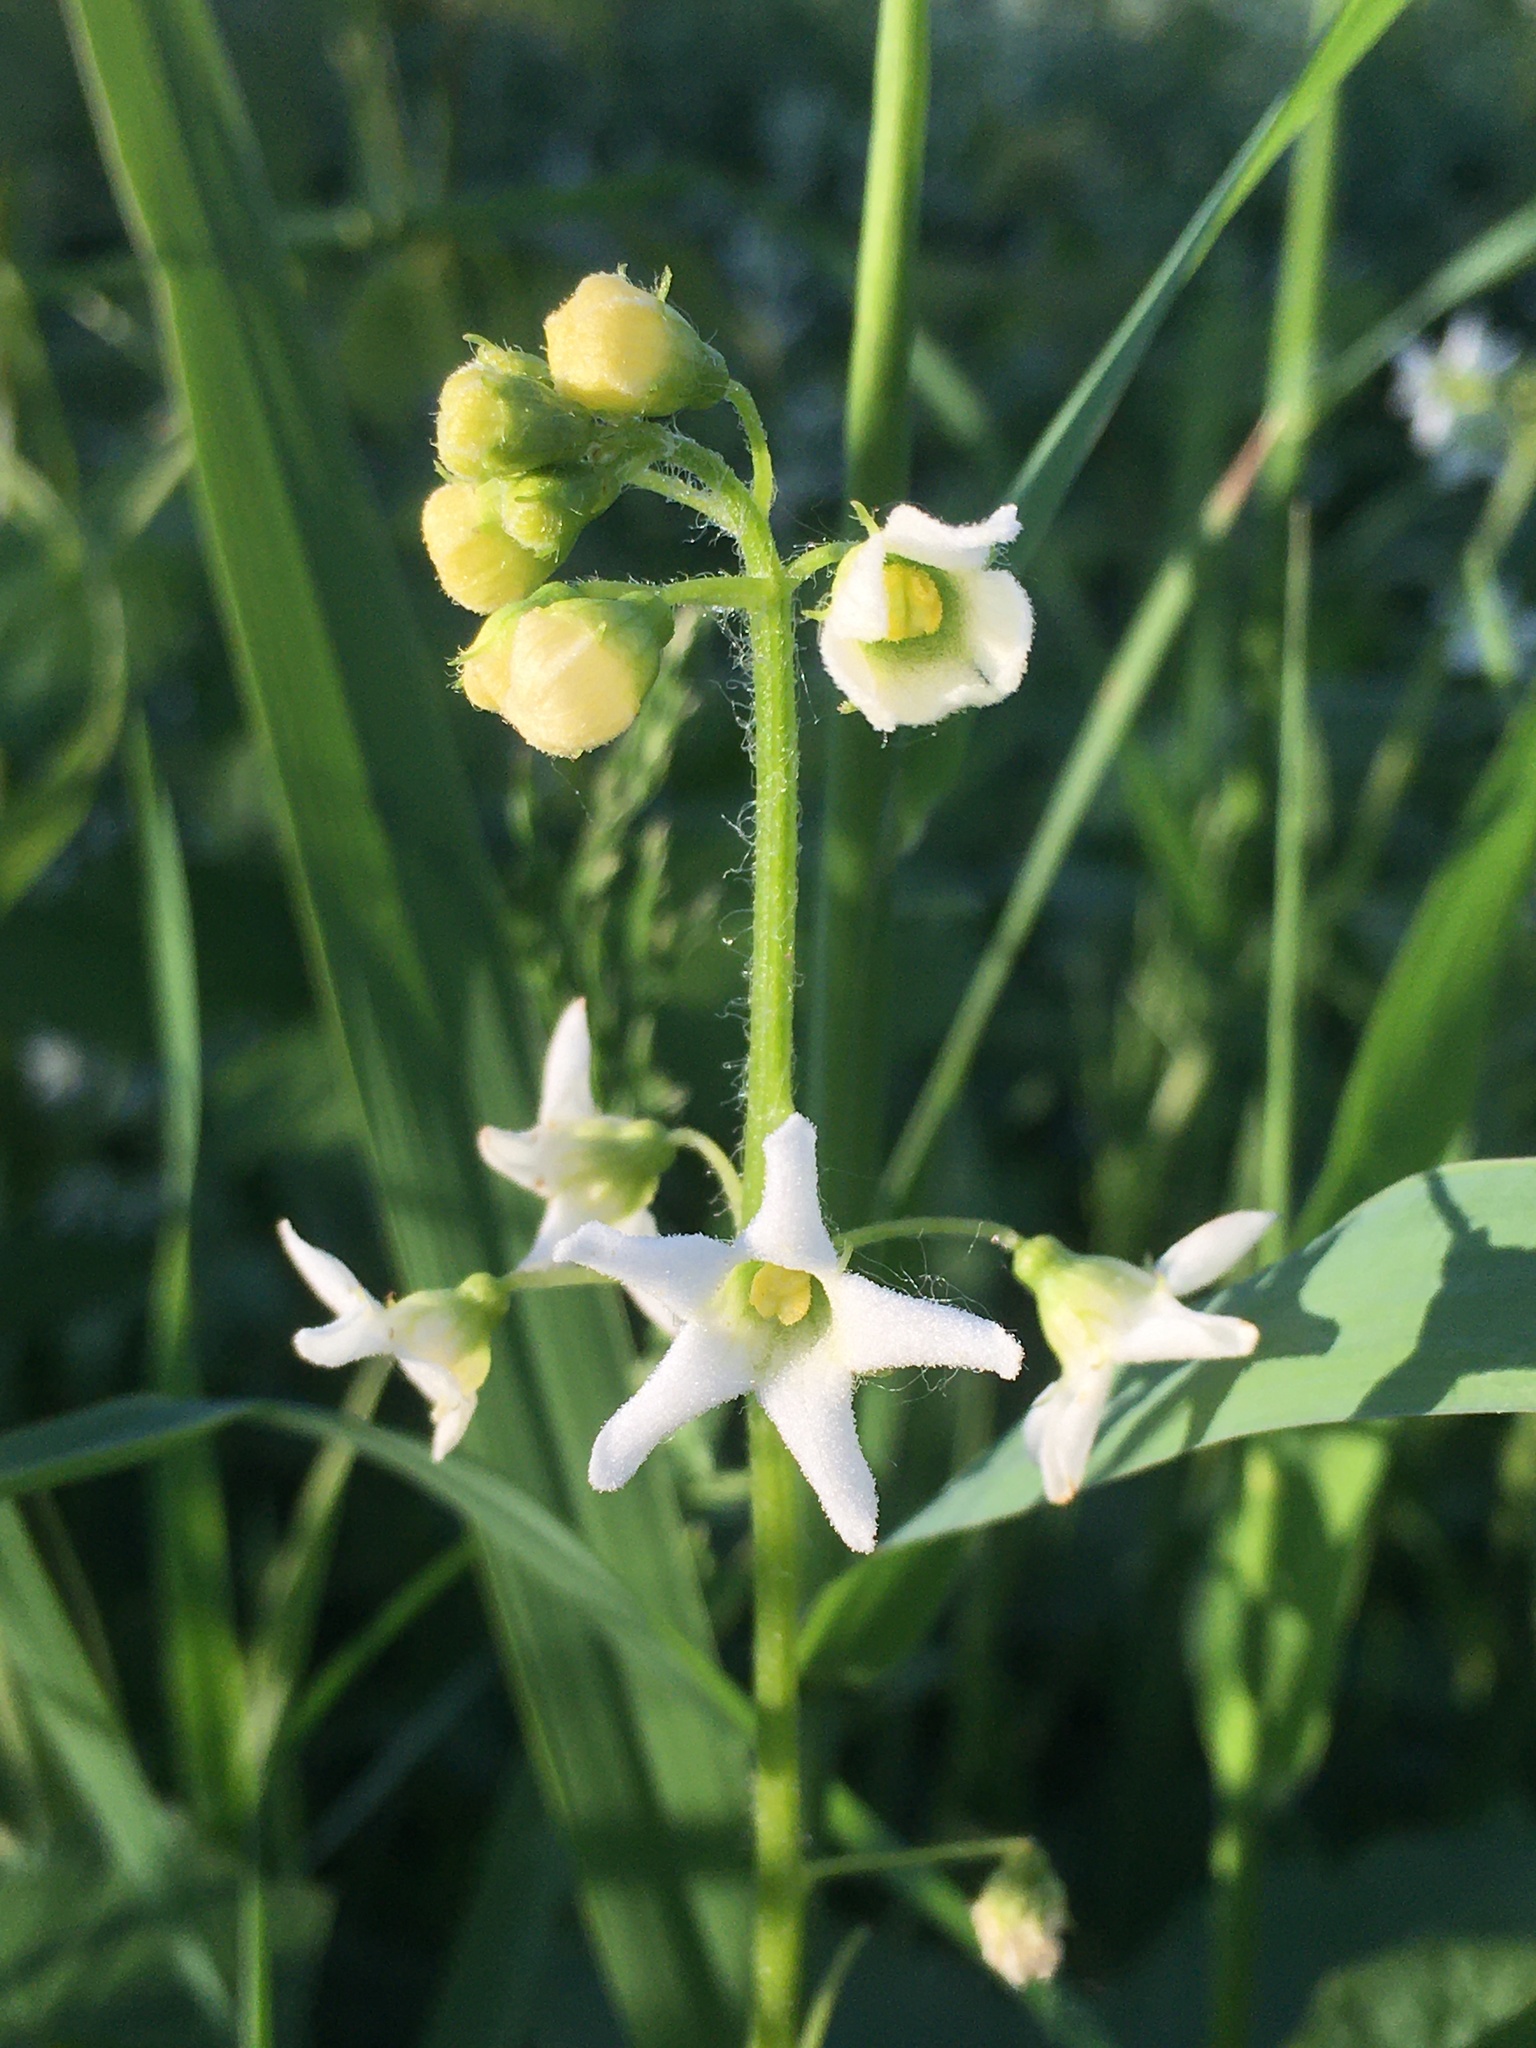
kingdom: Plantae
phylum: Tracheophyta
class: Magnoliopsida
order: Cucurbitales
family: Cucurbitaceae
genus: Marah
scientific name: Marah oregana
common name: Coastal manroot
